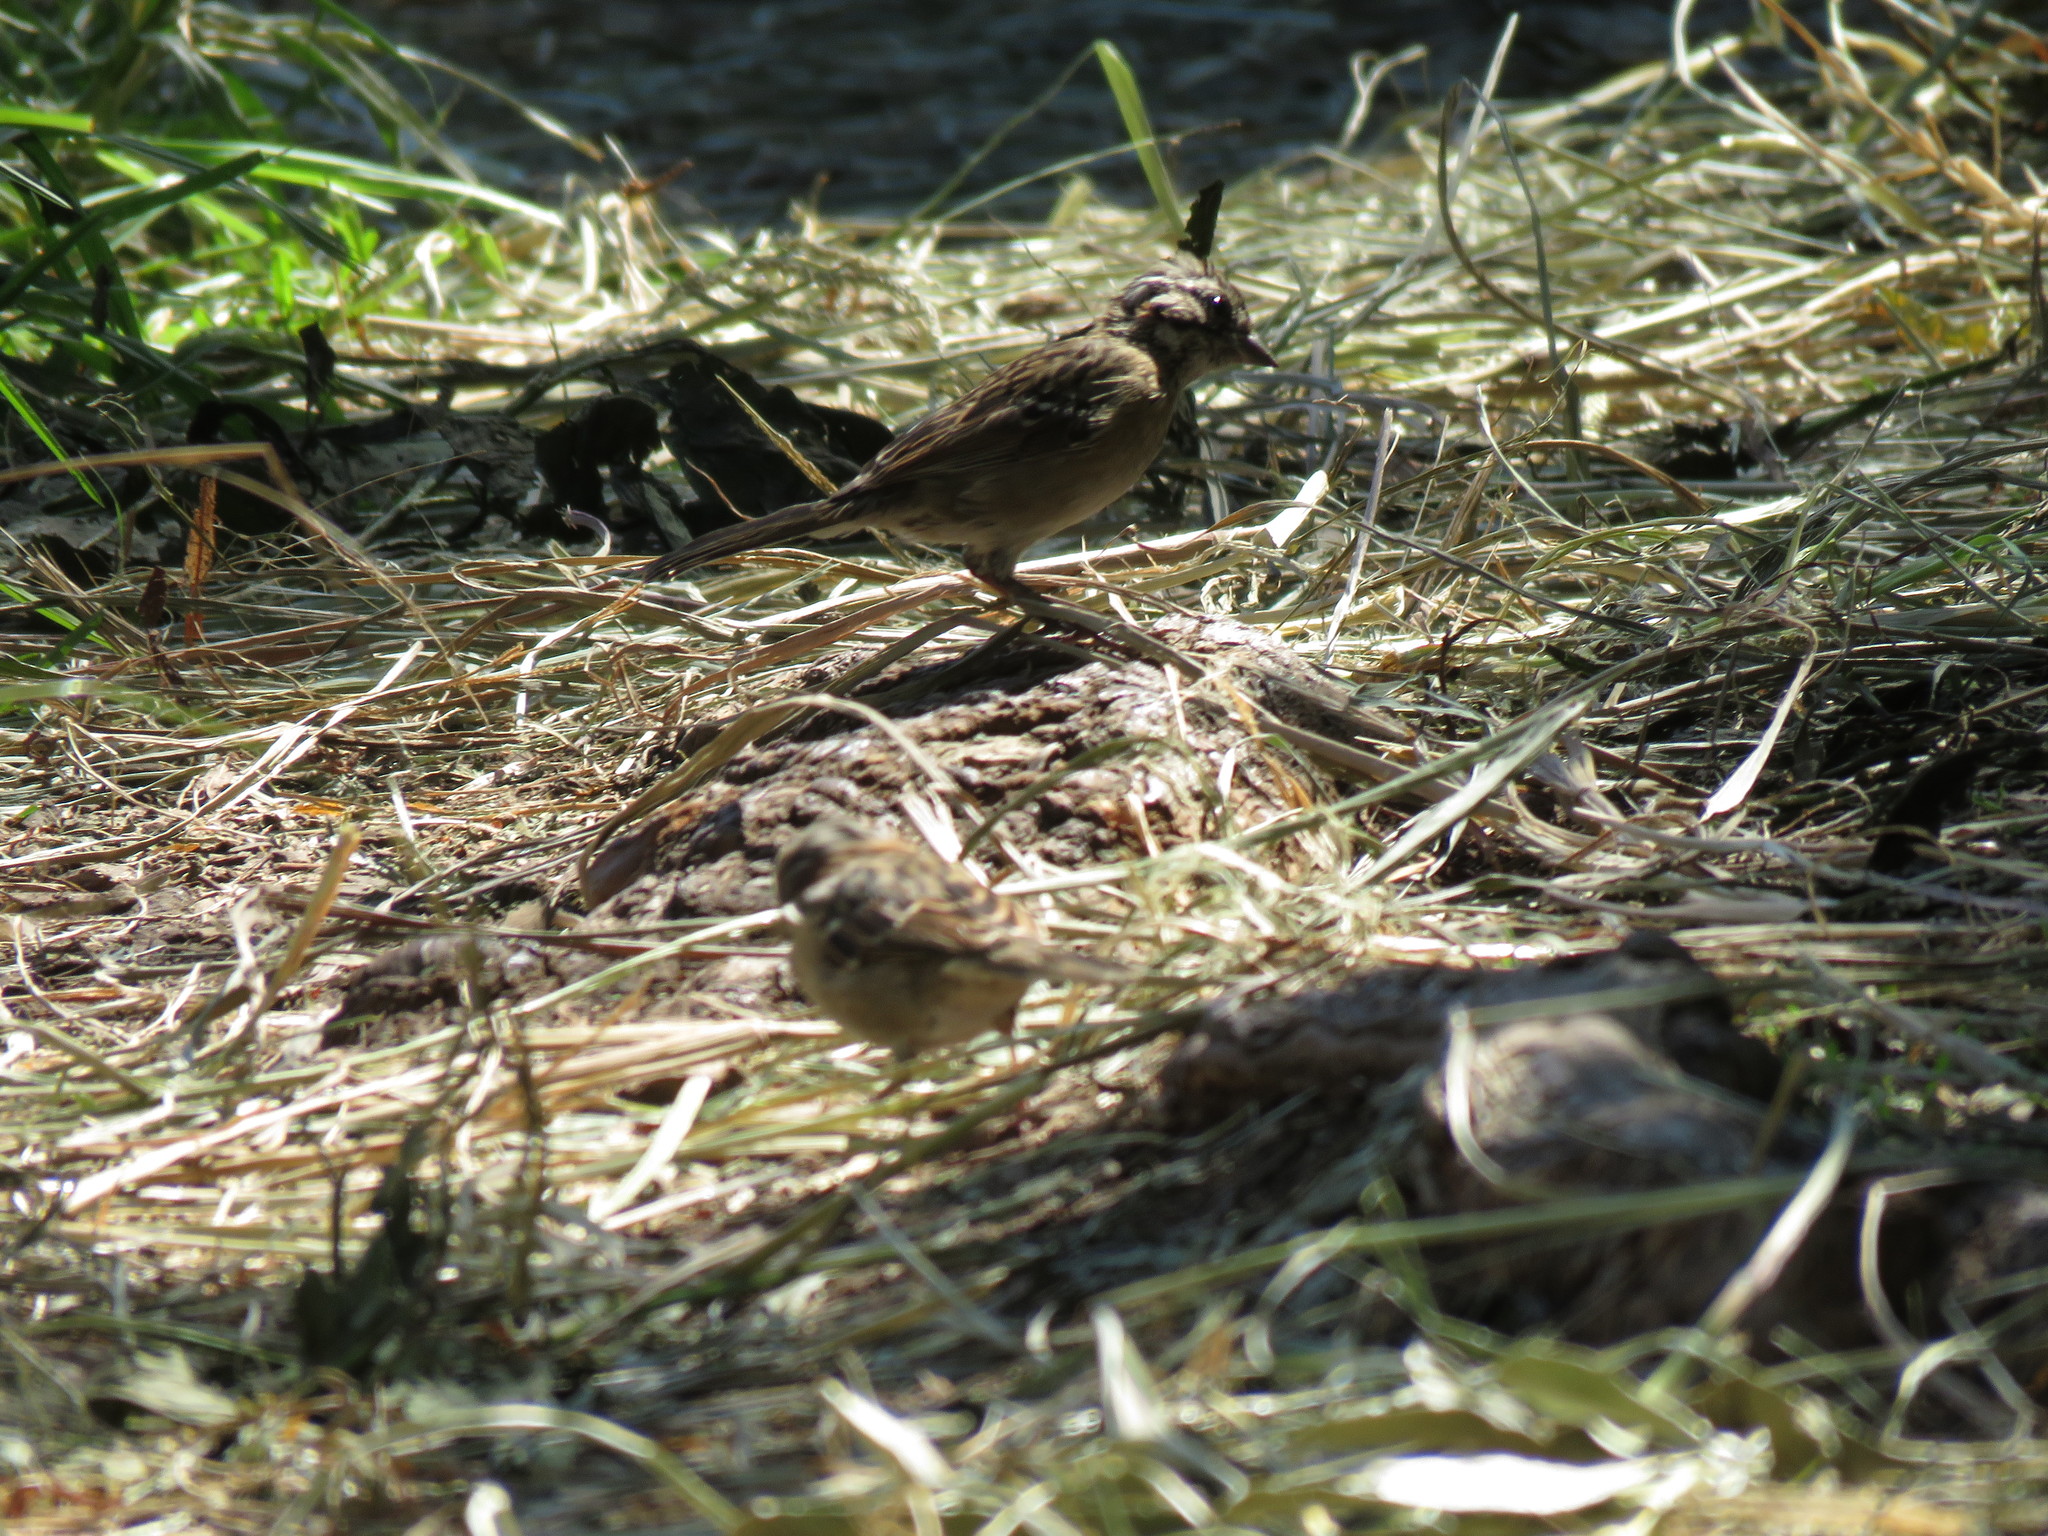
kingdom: Animalia
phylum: Chordata
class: Aves
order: Passeriformes
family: Passerellidae
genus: Zonotrichia
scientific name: Zonotrichia capensis
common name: Rufous-collared sparrow
